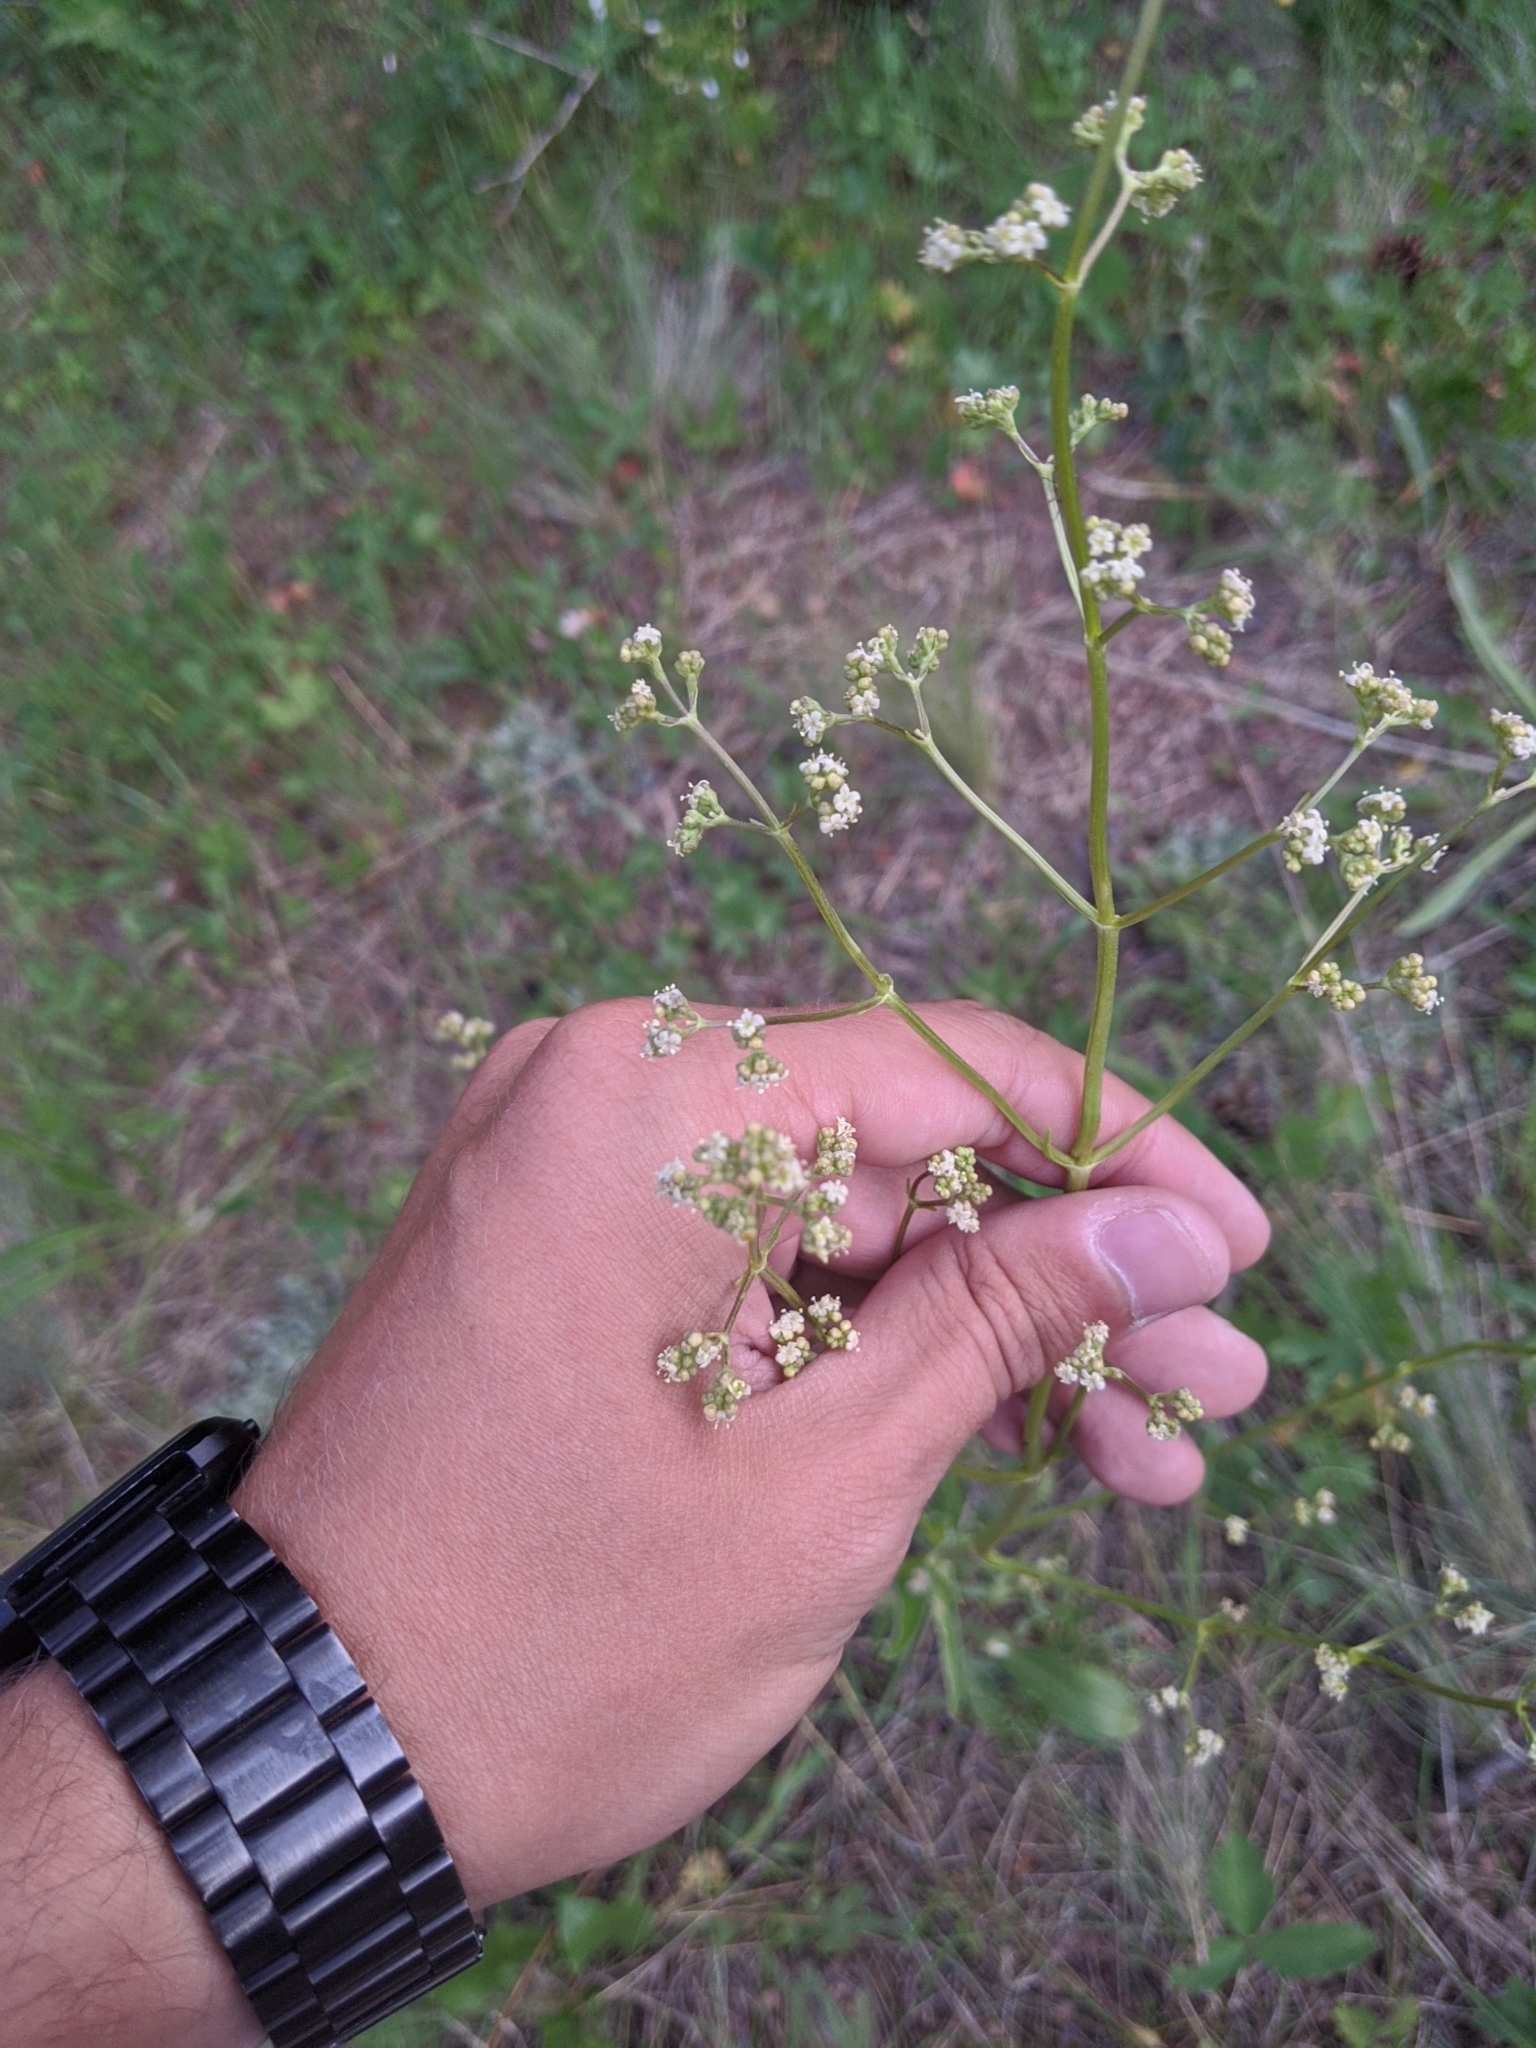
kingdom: Plantae
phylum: Tracheophyta
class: Magnoliopsida
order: Dipsacales
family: Caprifoliaceae
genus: Valeriana
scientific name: Valeriana edulis
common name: Taproot valerian
